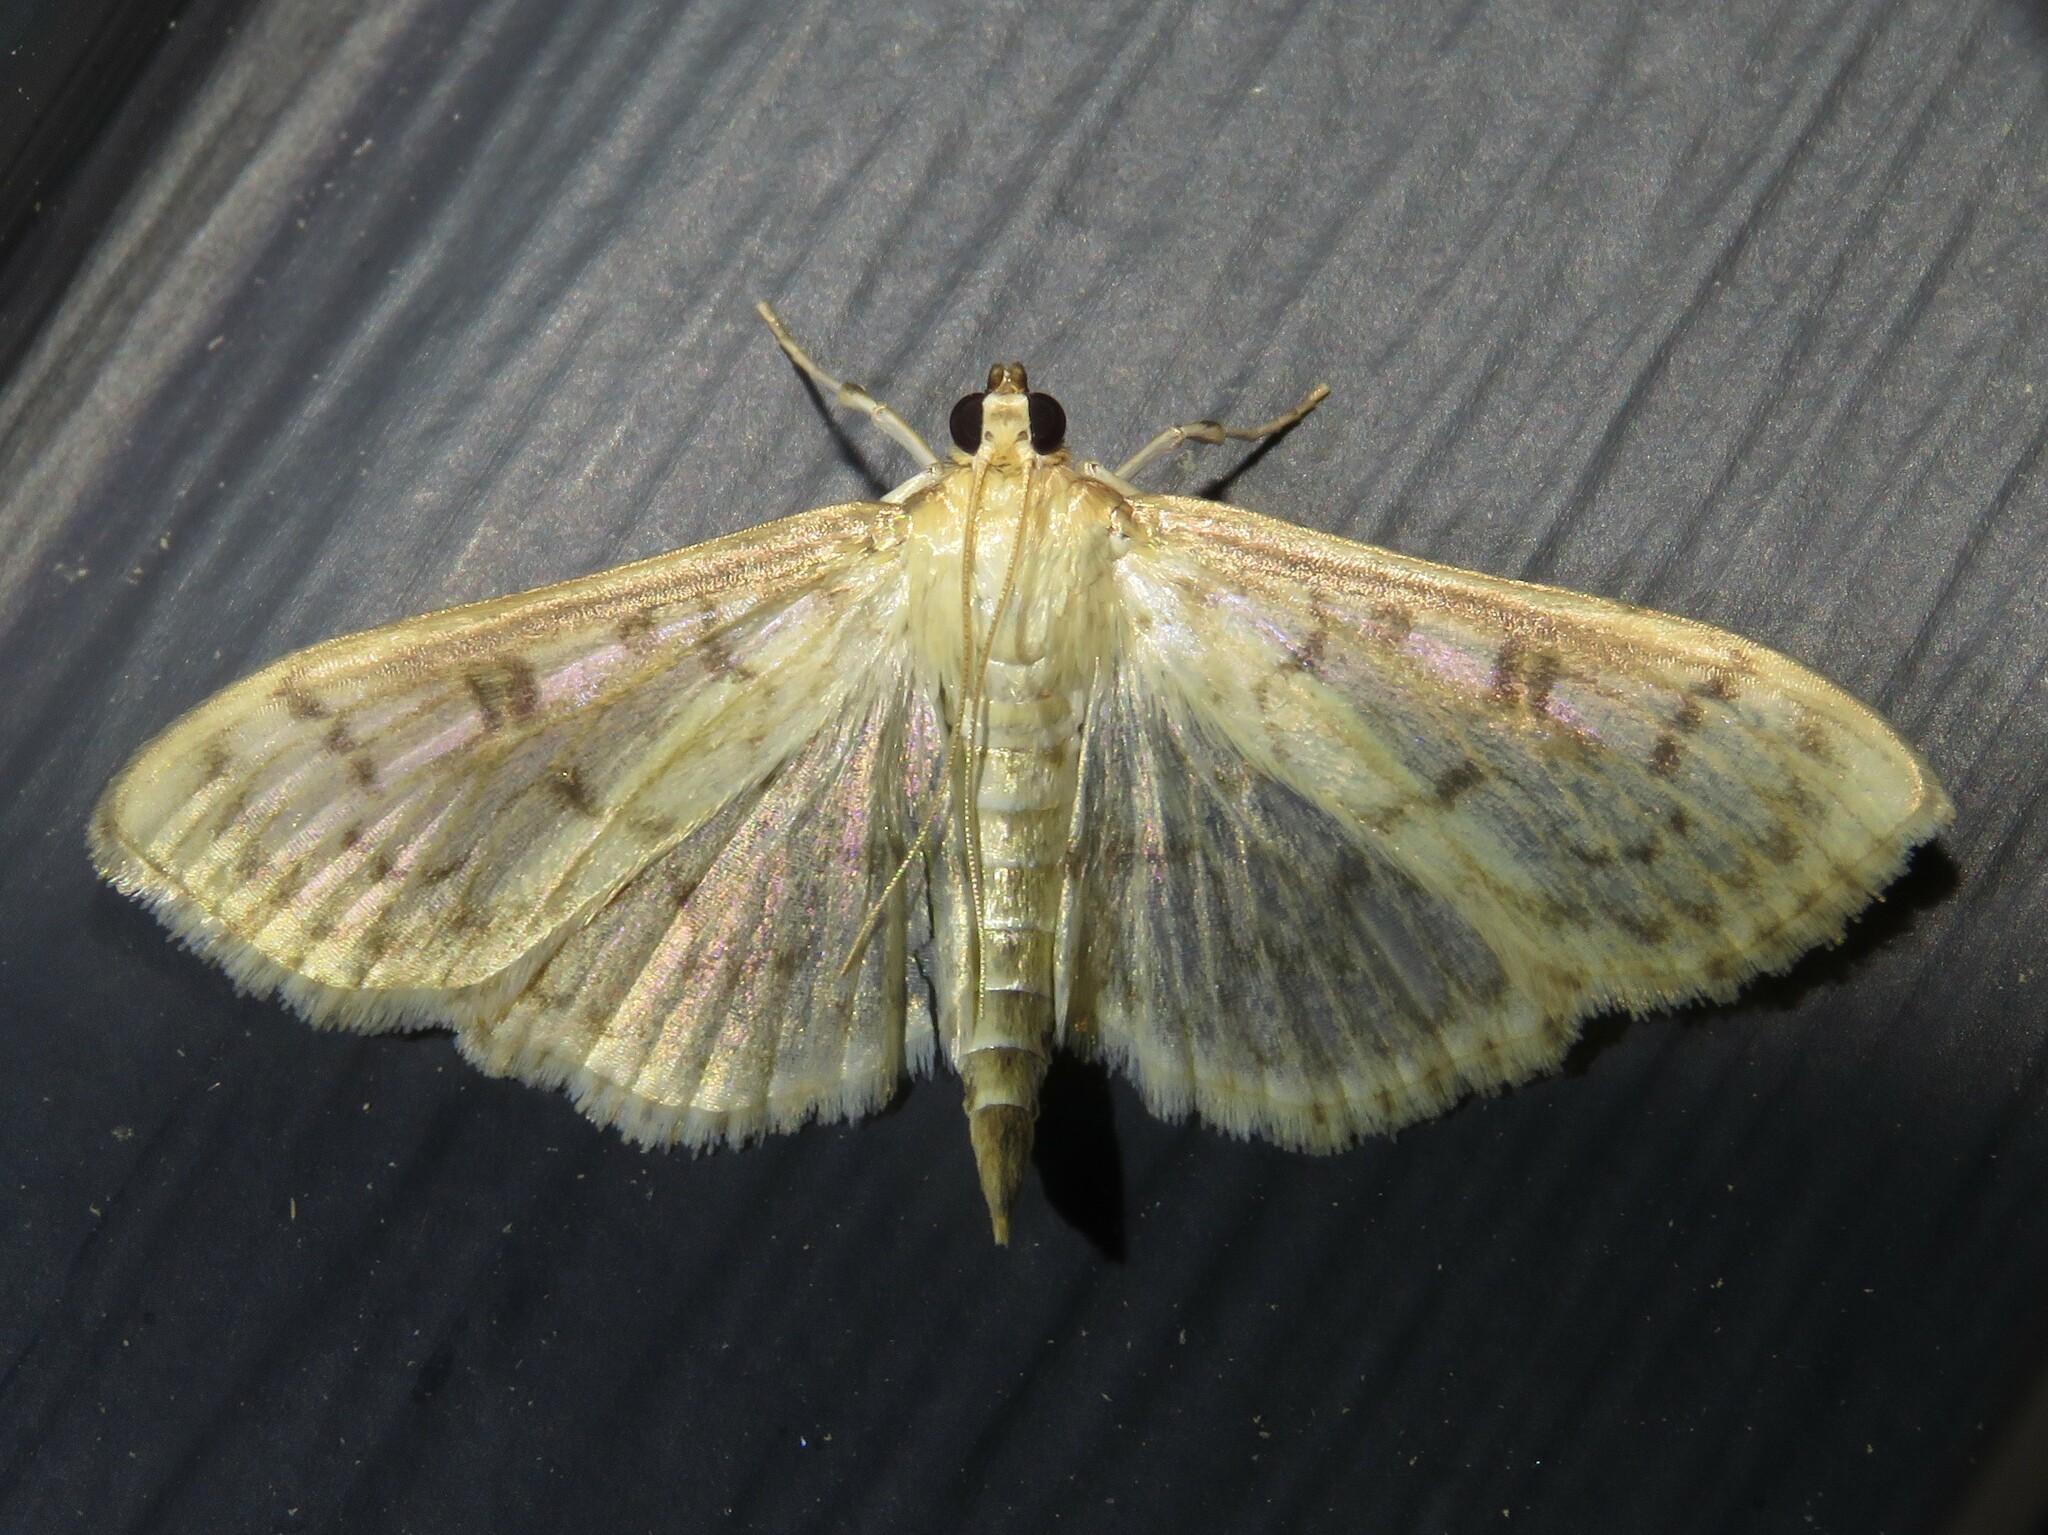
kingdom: Animalia
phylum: Arthropoda
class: Insecta
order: Lepidoptera
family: Crambidae
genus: Herpetogramma
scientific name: Herpetogramma aquilonalis
